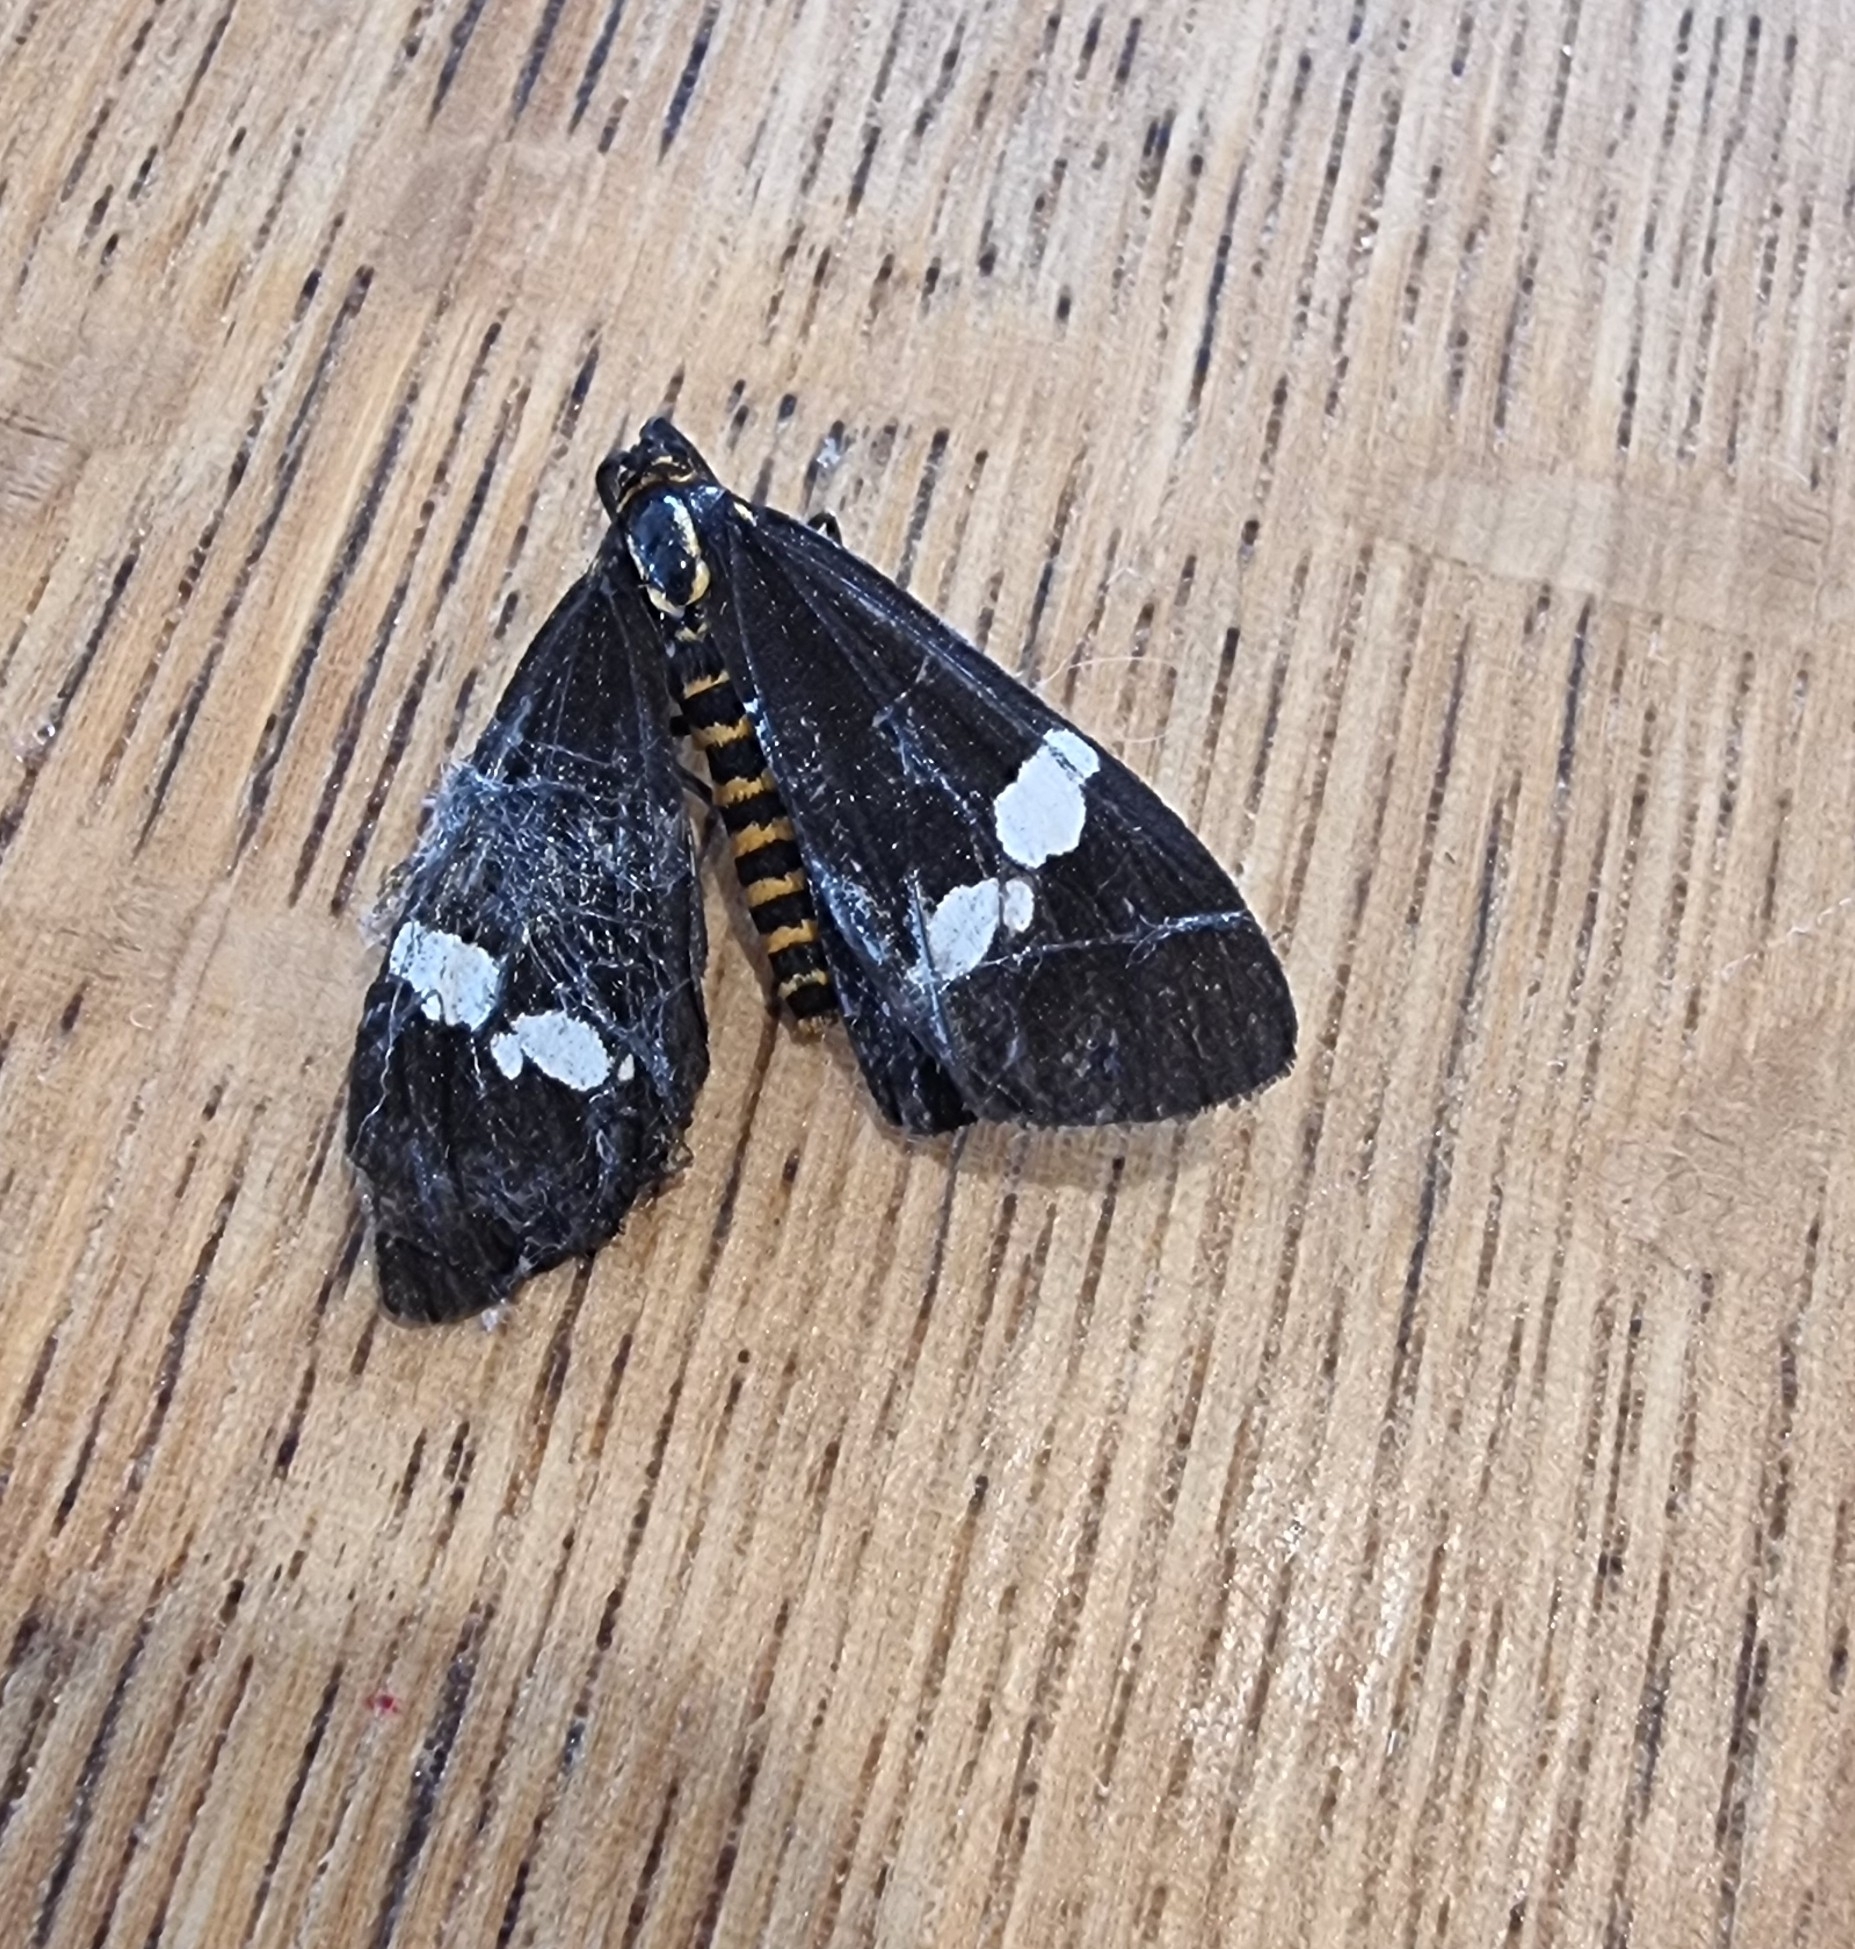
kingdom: Animalia
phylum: Arthropoda
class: Insecta
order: Lepidoptera
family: Erebidae
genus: Nyctemera
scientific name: Nyctemera annulatum
